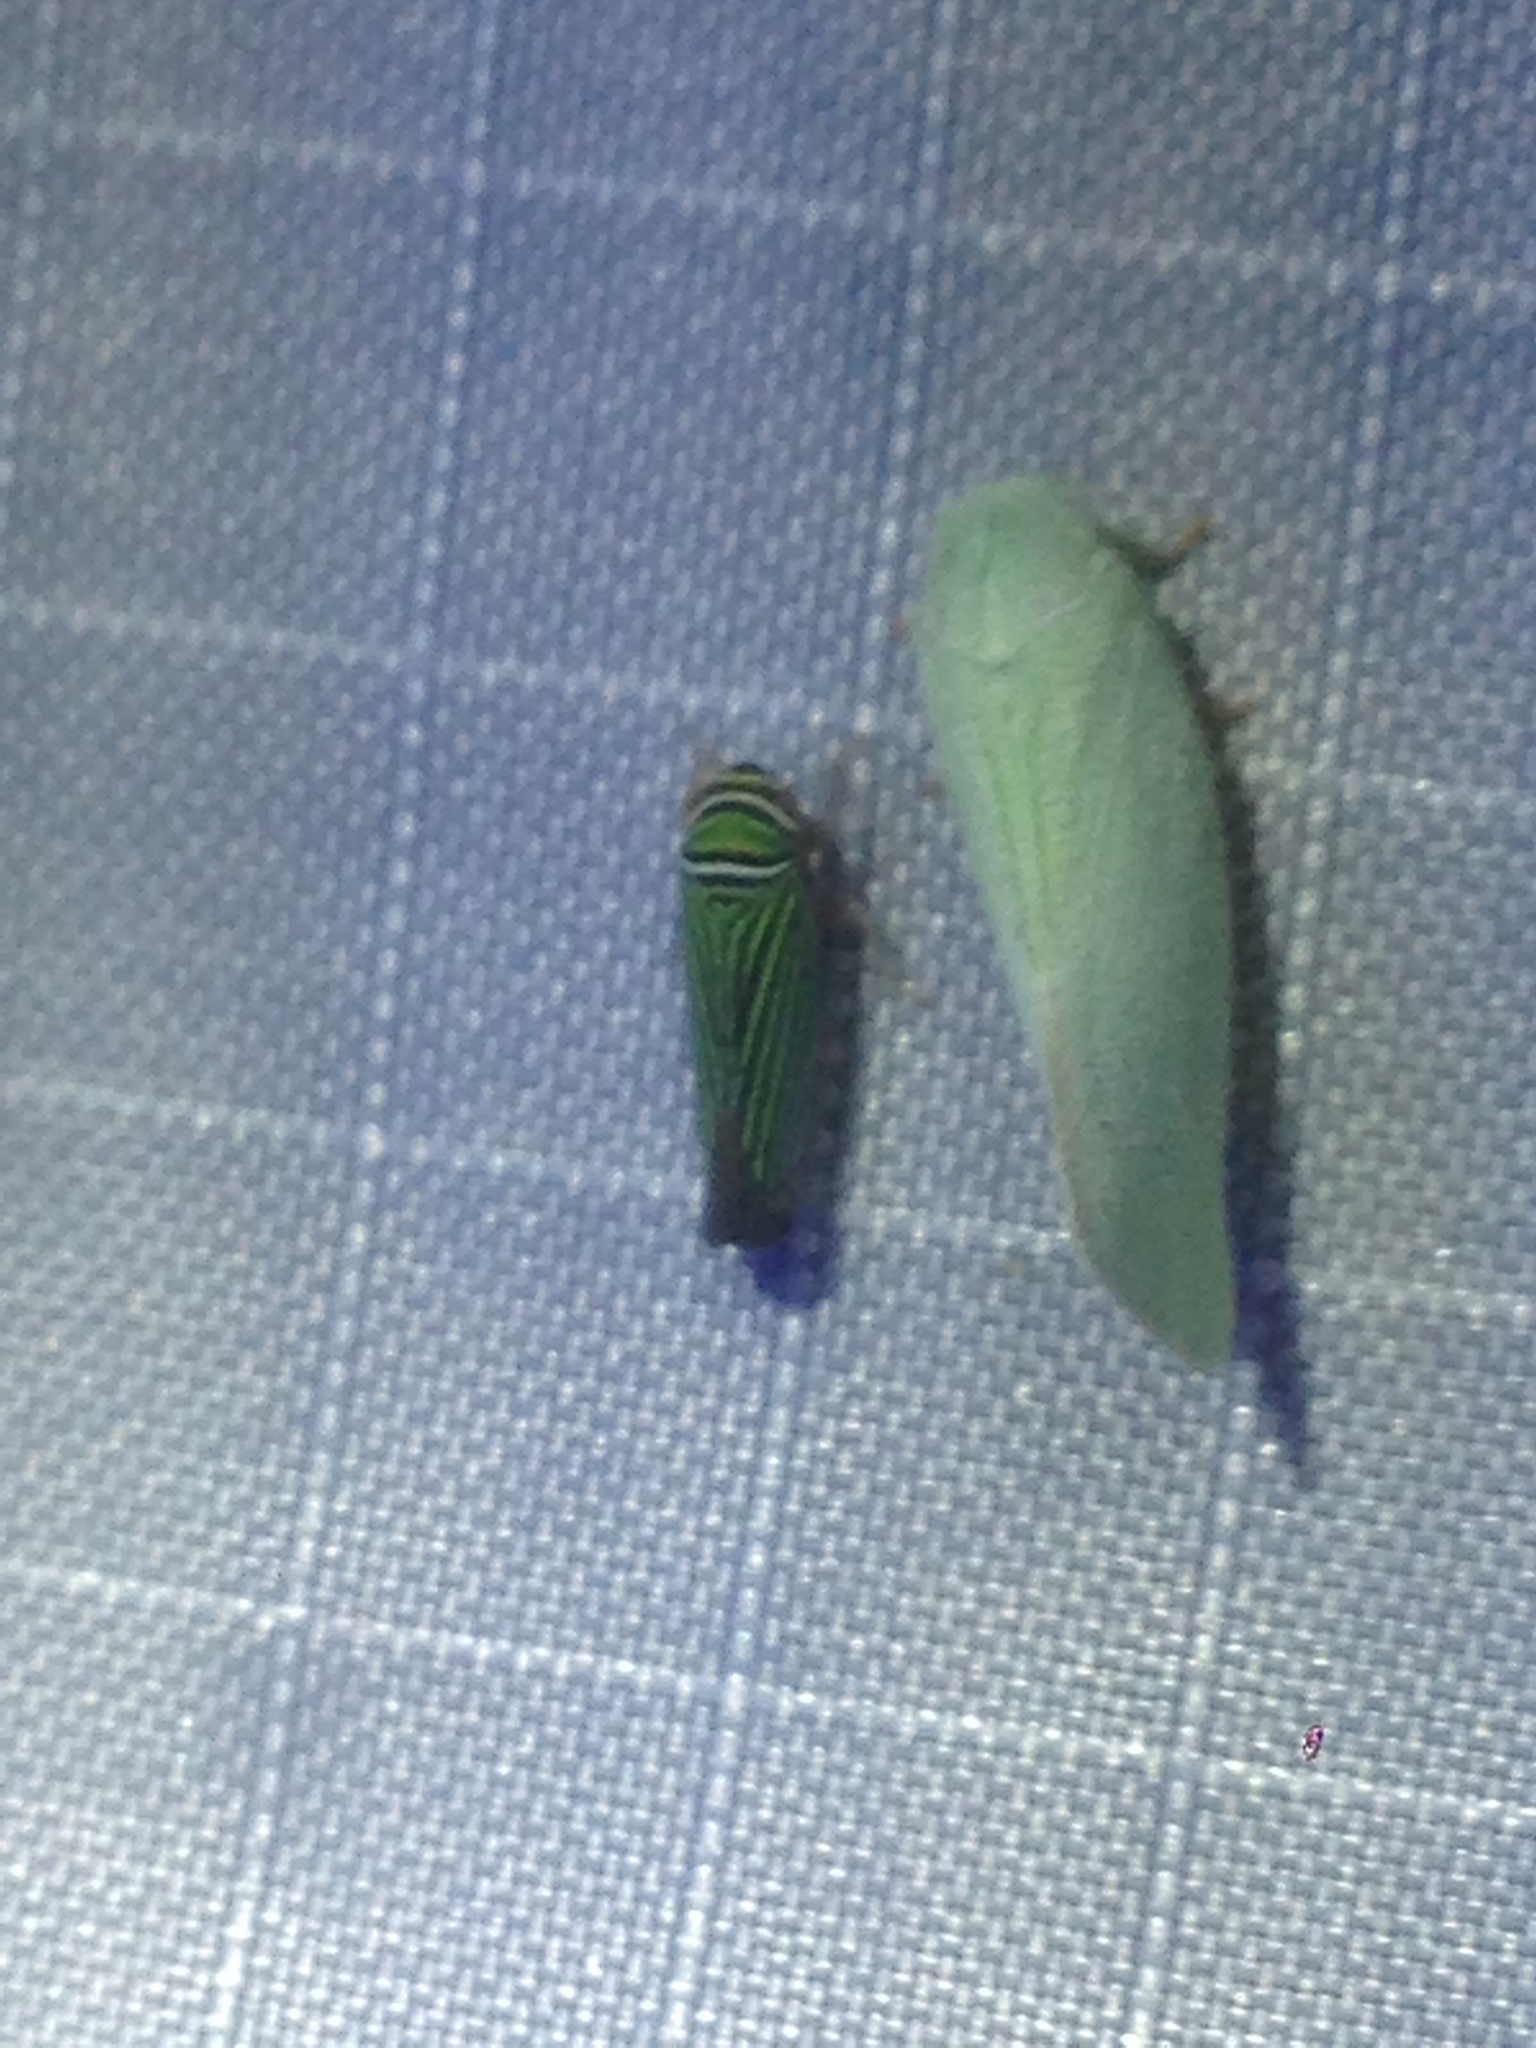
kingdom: Animalia
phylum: Arthropoda
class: Insecta
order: Hemiptera
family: Cicadellidae
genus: Tylozygus
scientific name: Tylozygus bifidus
